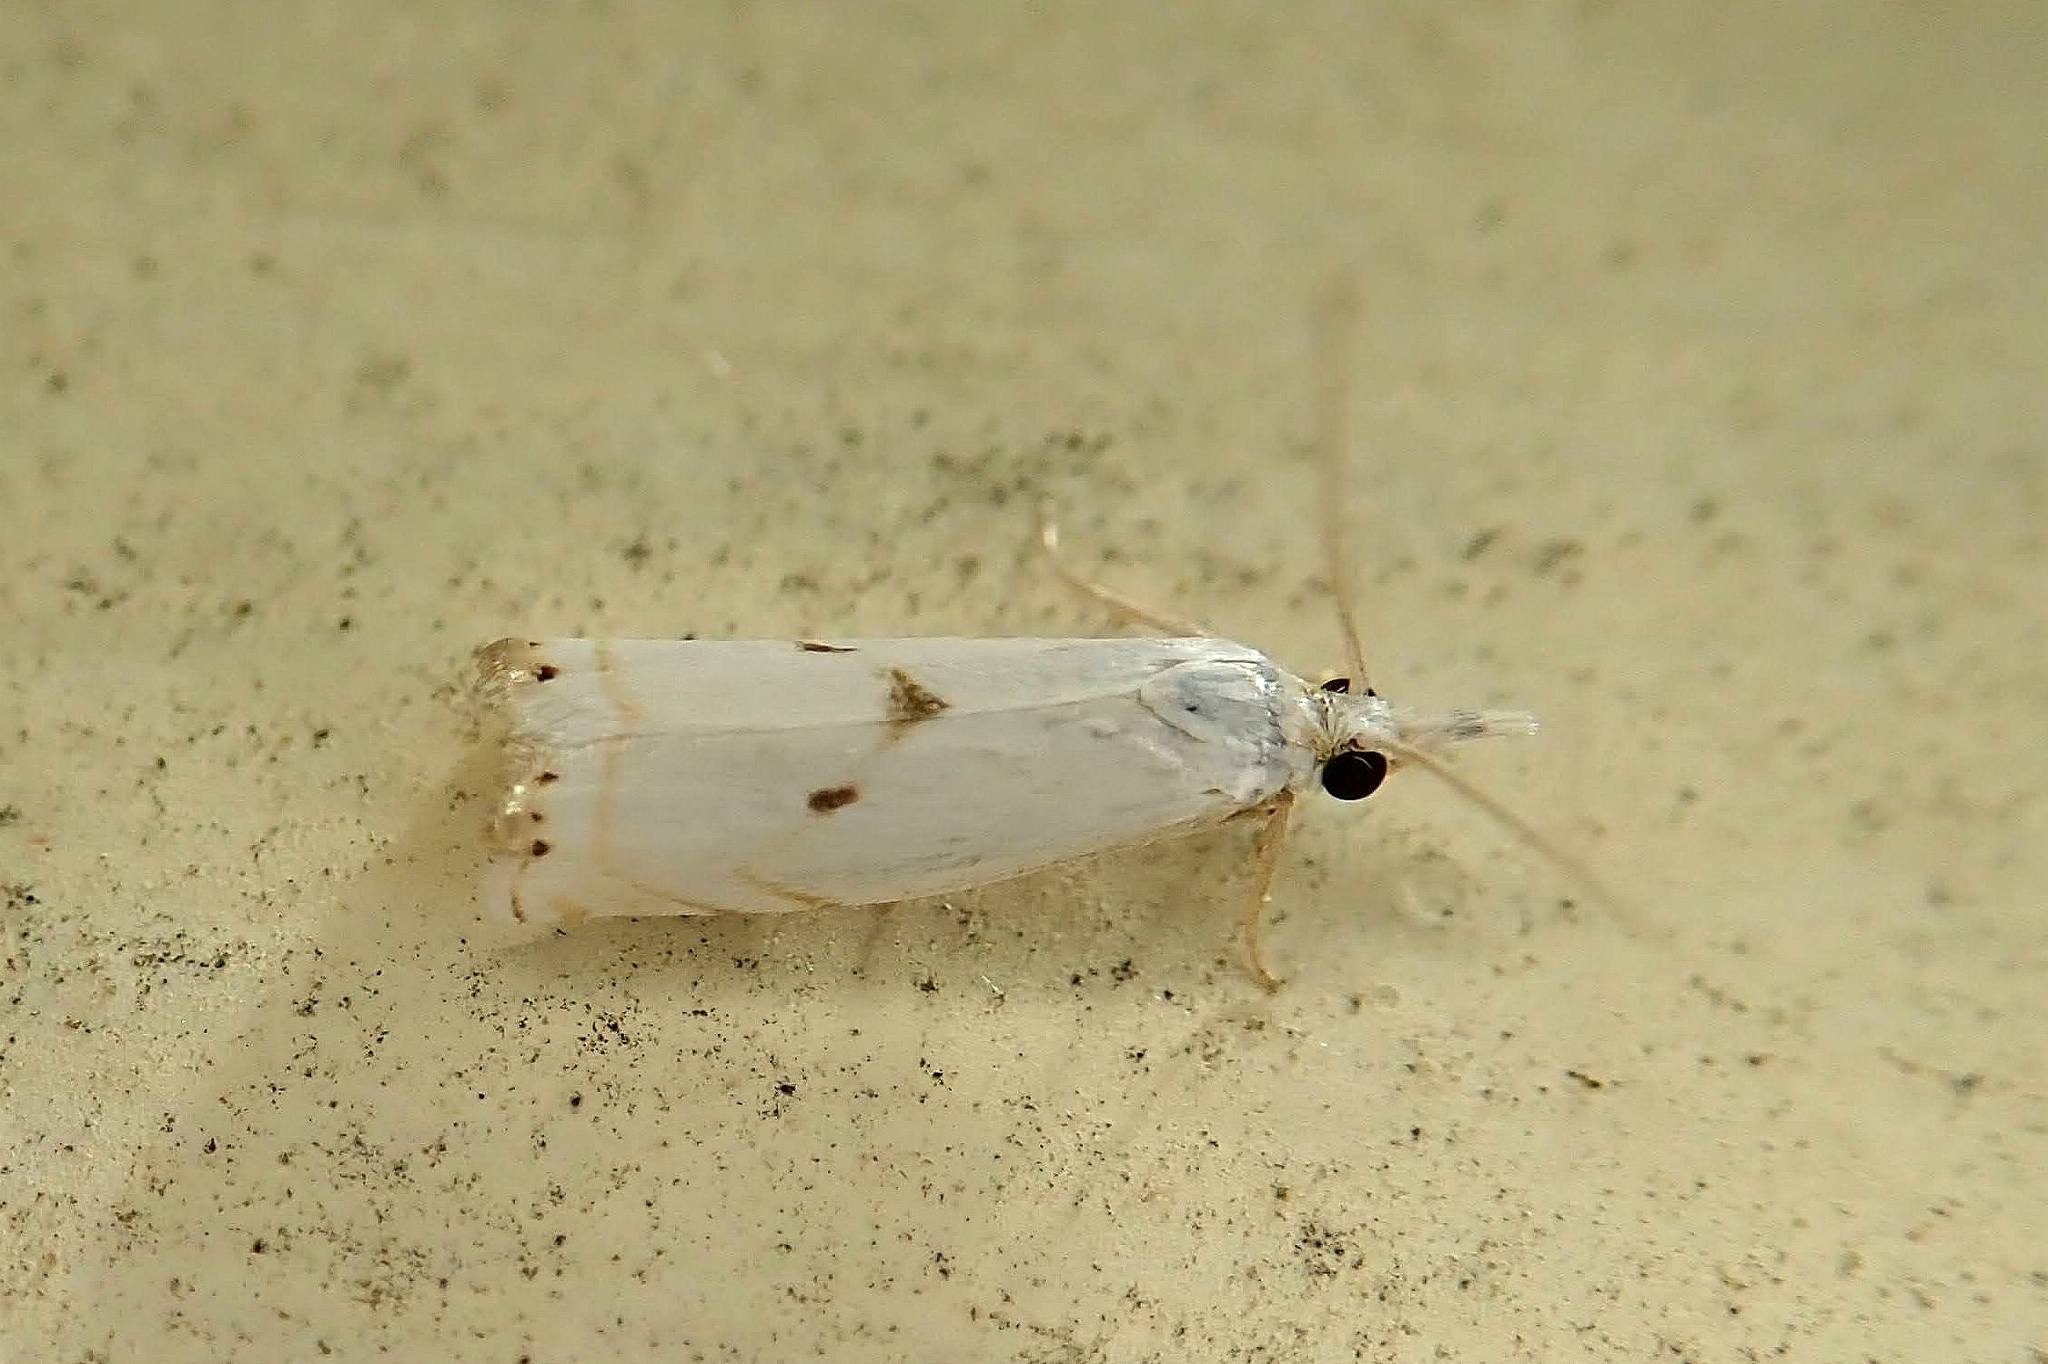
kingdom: Animalia
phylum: Arthropoda
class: Insecta
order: Lepidoptera
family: Crambidae
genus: Microcrambus
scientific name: Microcrambus biguttellus
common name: Gold-stripe grass-veneer moth
